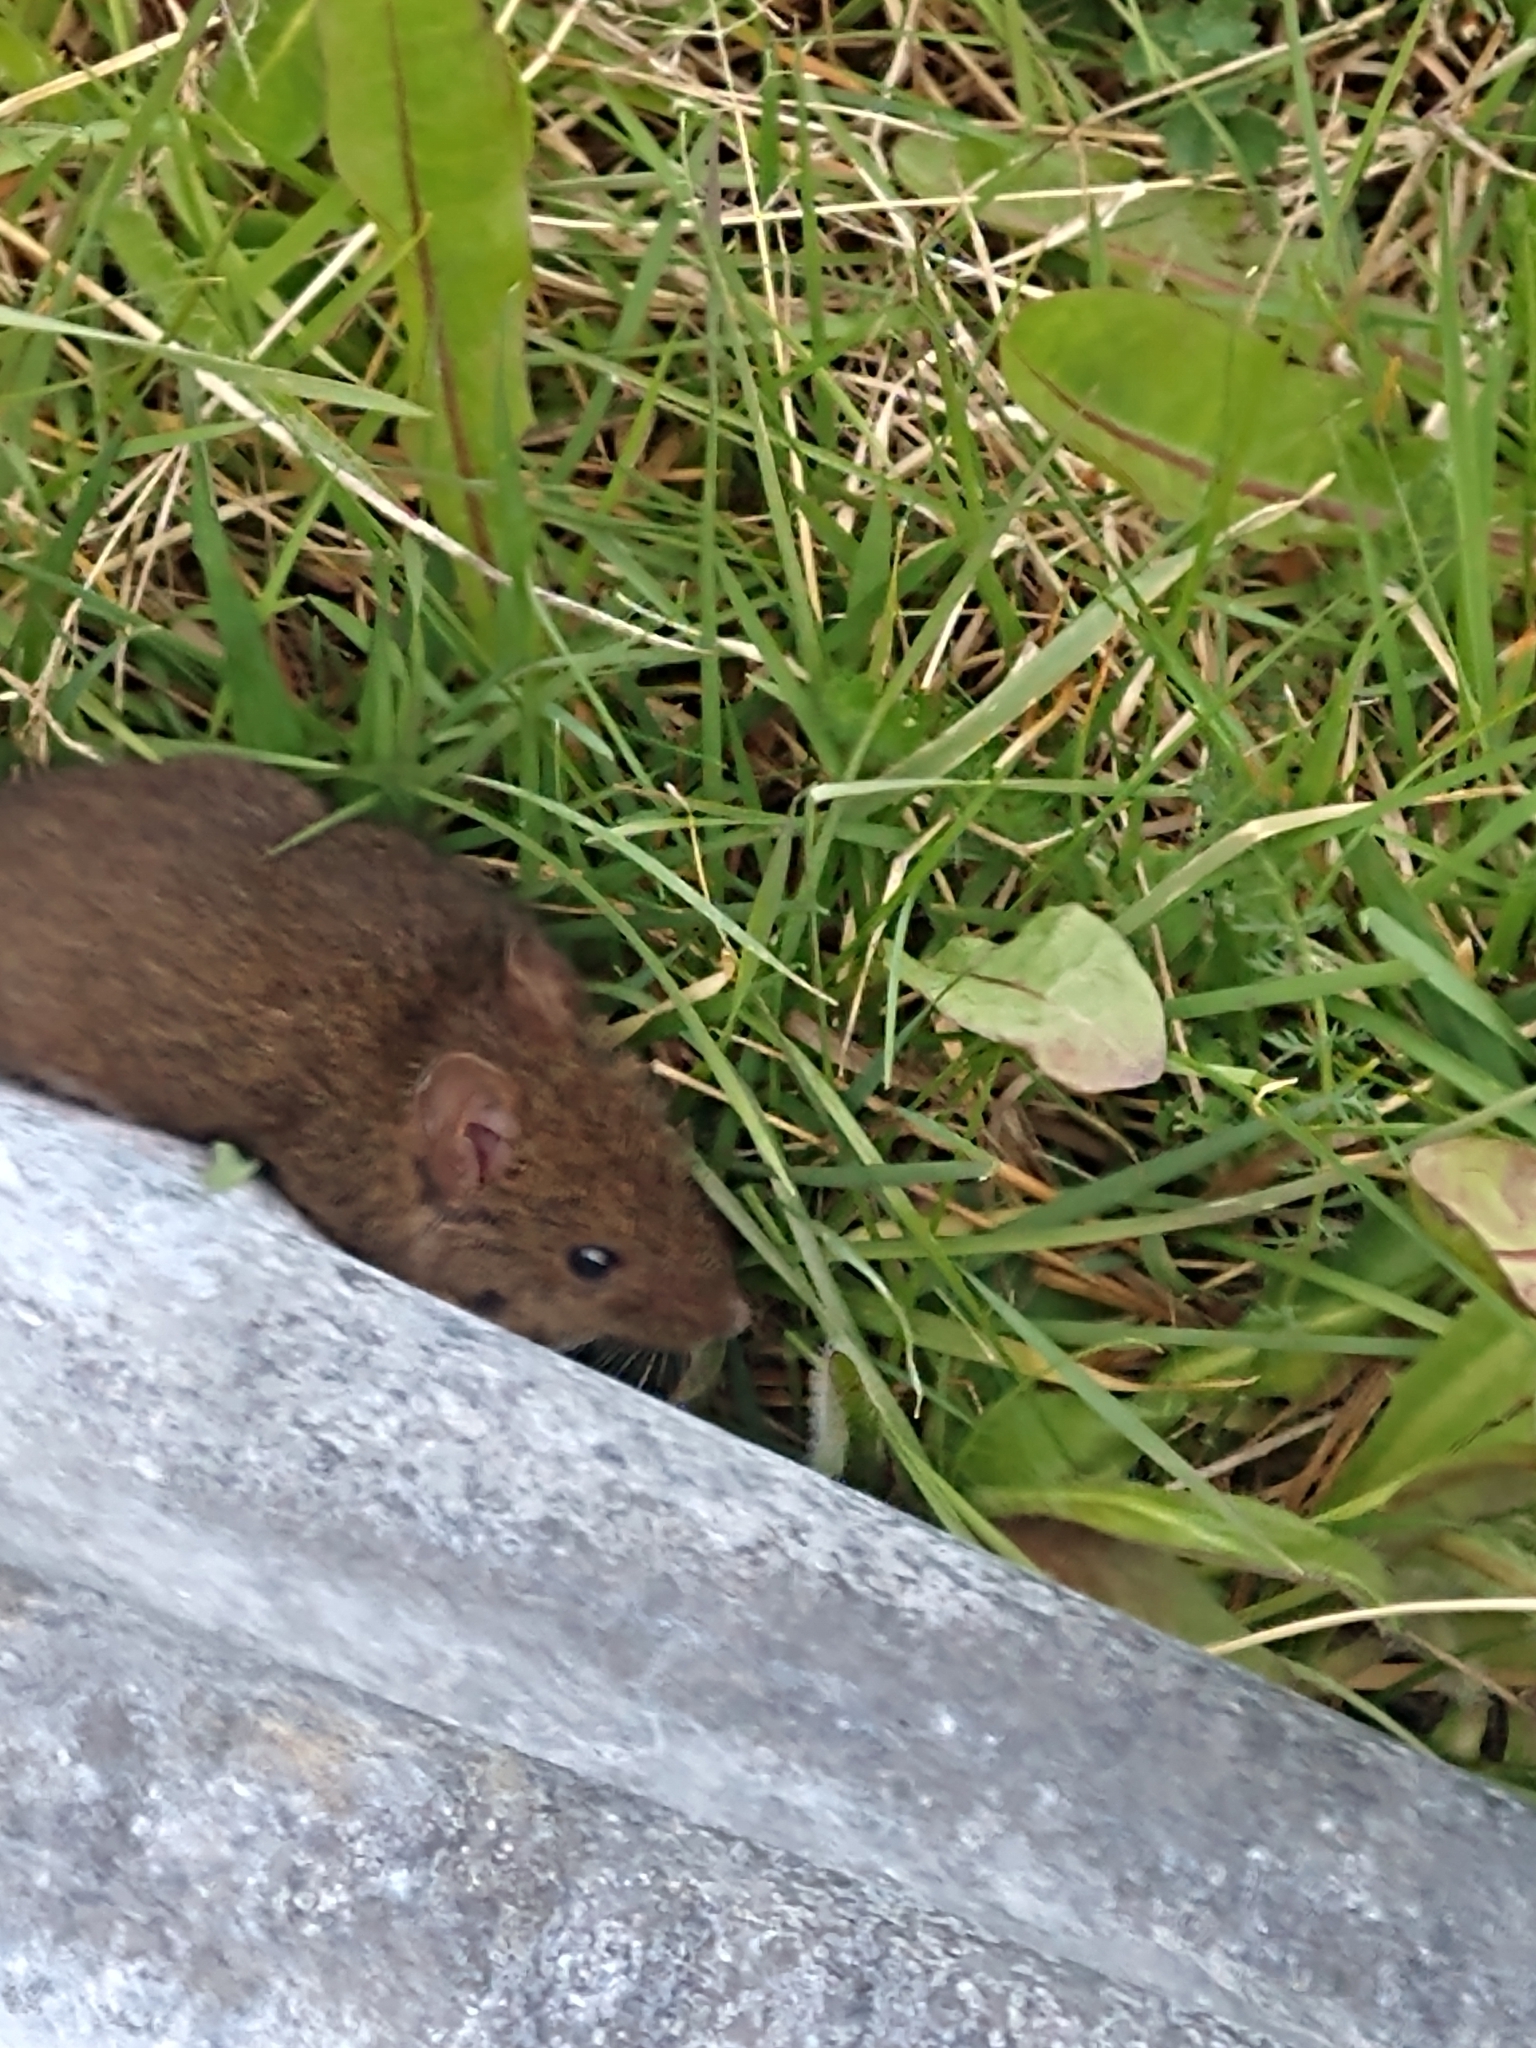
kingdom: Animalia
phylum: Chordata
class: Mammalia
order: Rodentia
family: Cricetidae
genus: Abrothrix
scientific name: Abrothrix olivaceus
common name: Olive-colored akodont
